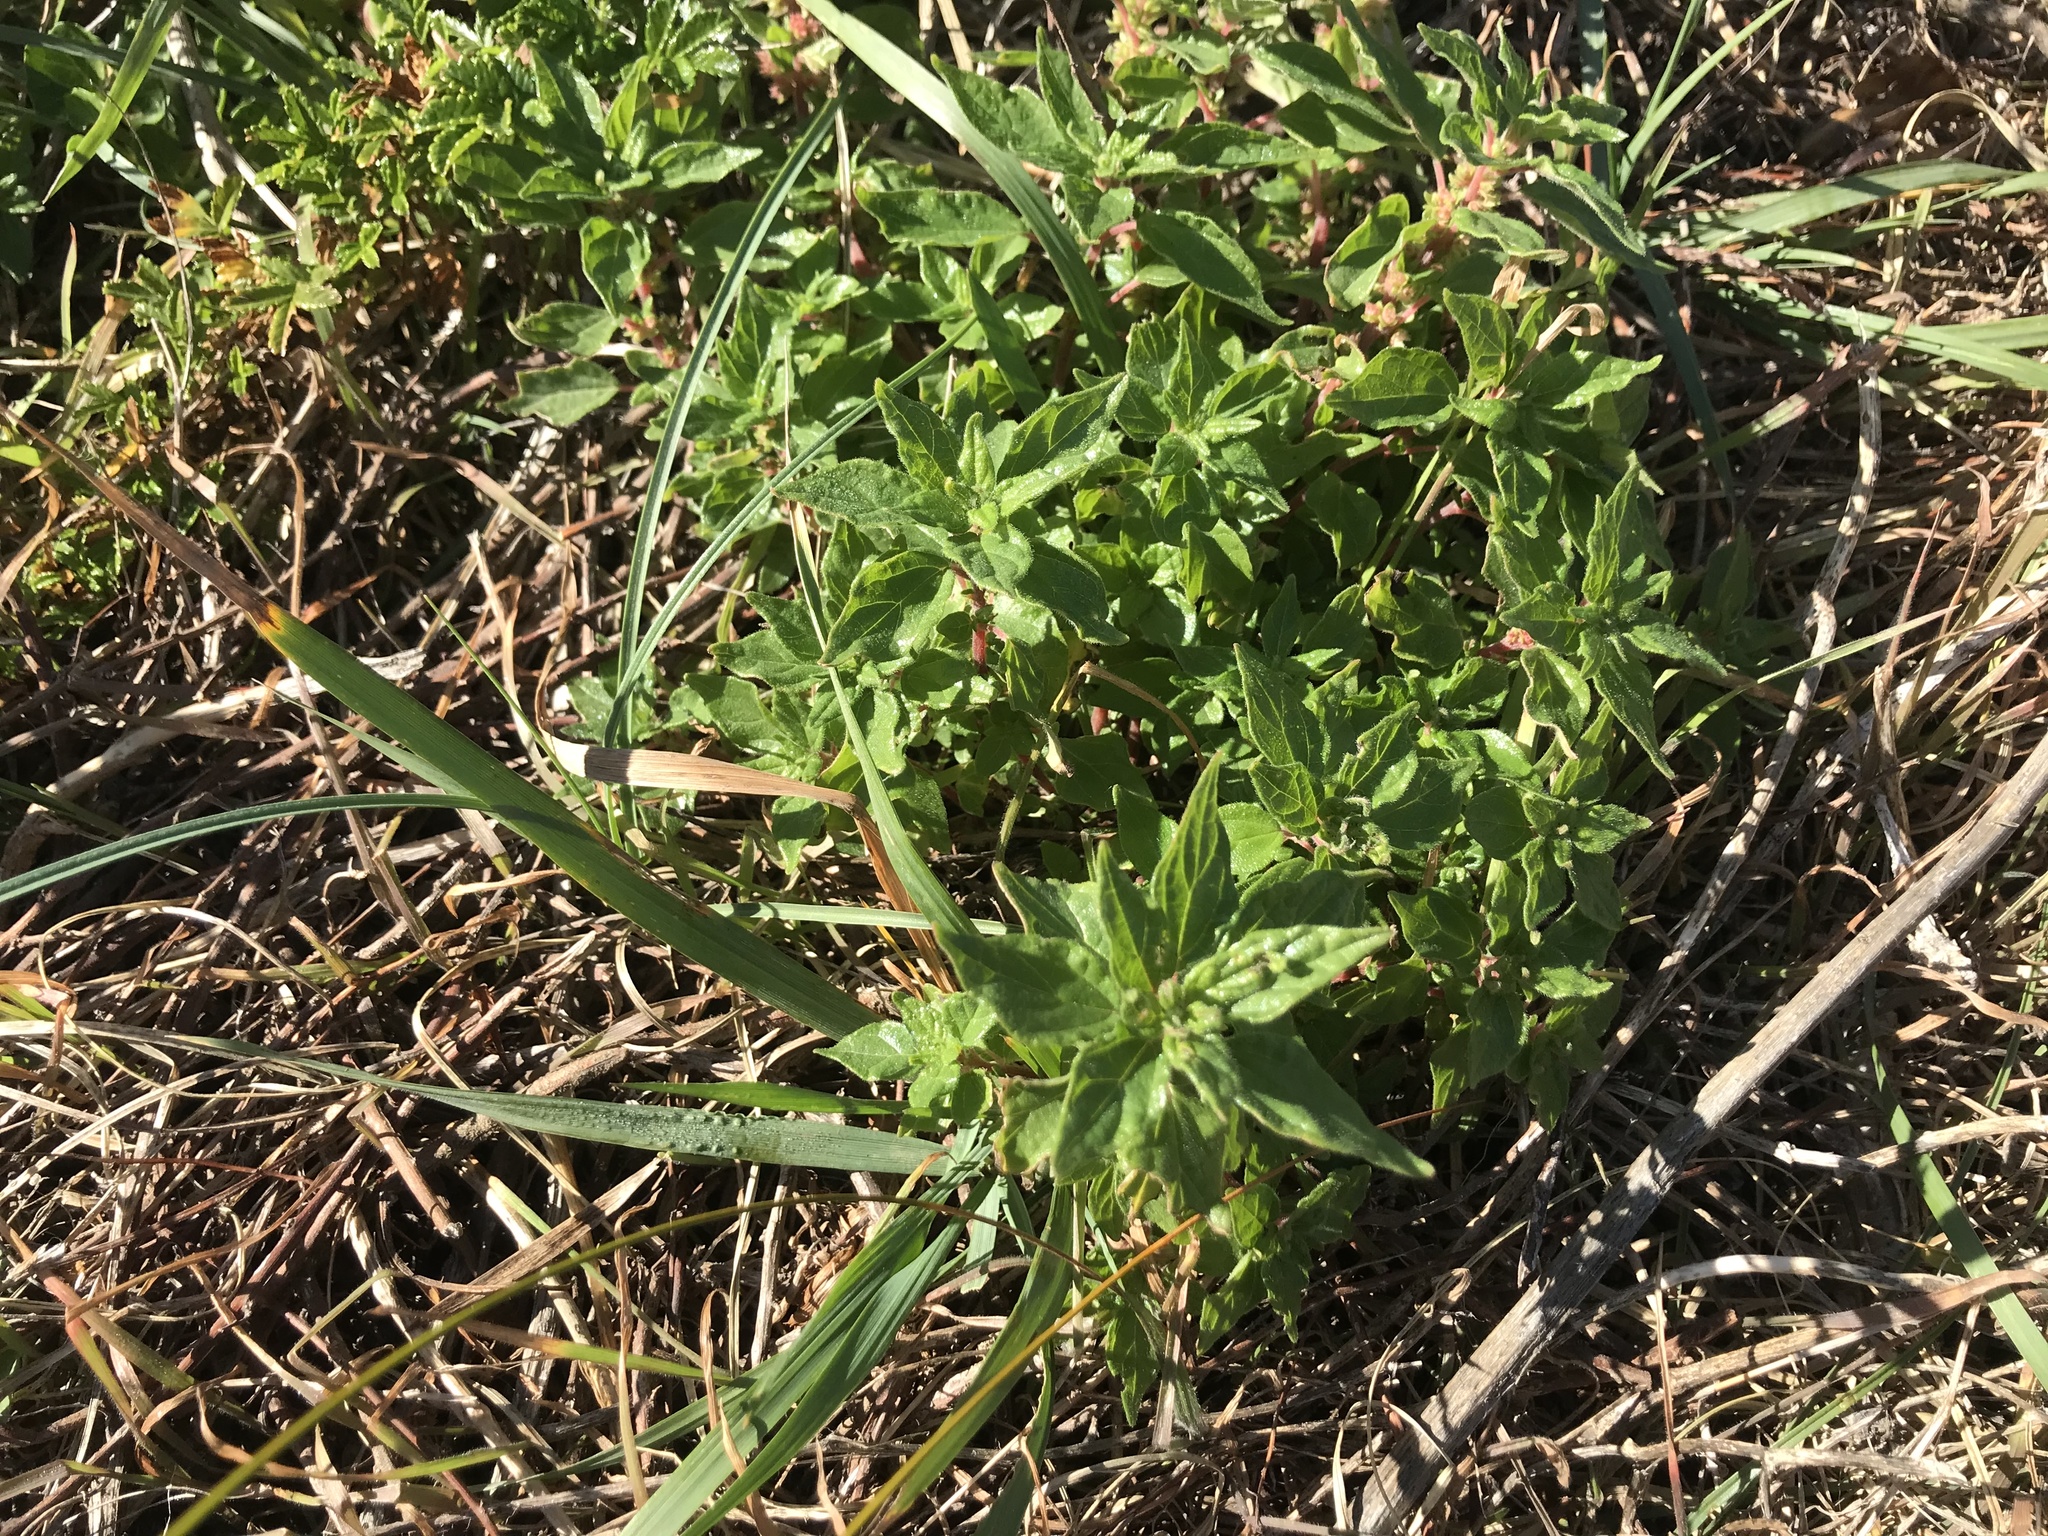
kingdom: Plantae
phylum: Tracheophyta
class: Magnoliopsida
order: Rosales
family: Urticaceae
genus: Parietaria
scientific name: Parietaria judaica
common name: Pellitory-of-the-wall
